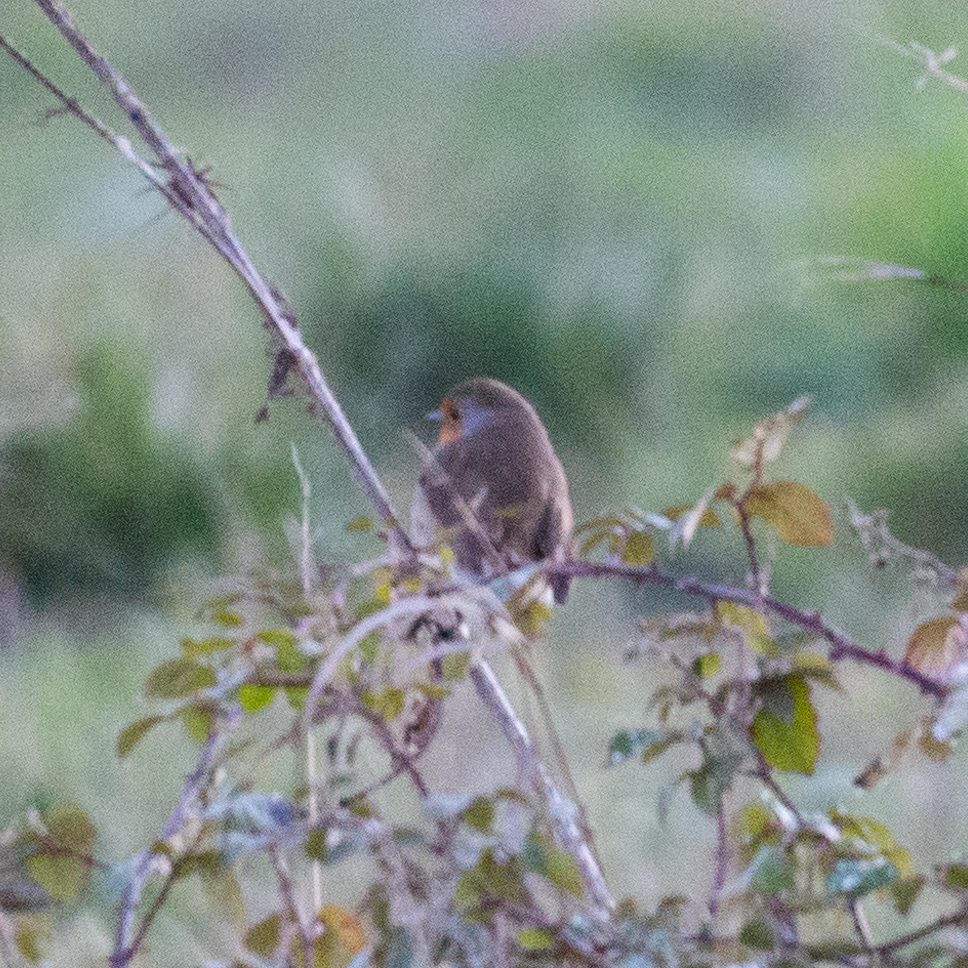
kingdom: Animalia
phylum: Chordata
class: Aves
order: Passeriformes
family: Muscicapidae
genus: Erithacus
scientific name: Erithacus rubecula
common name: European robin
